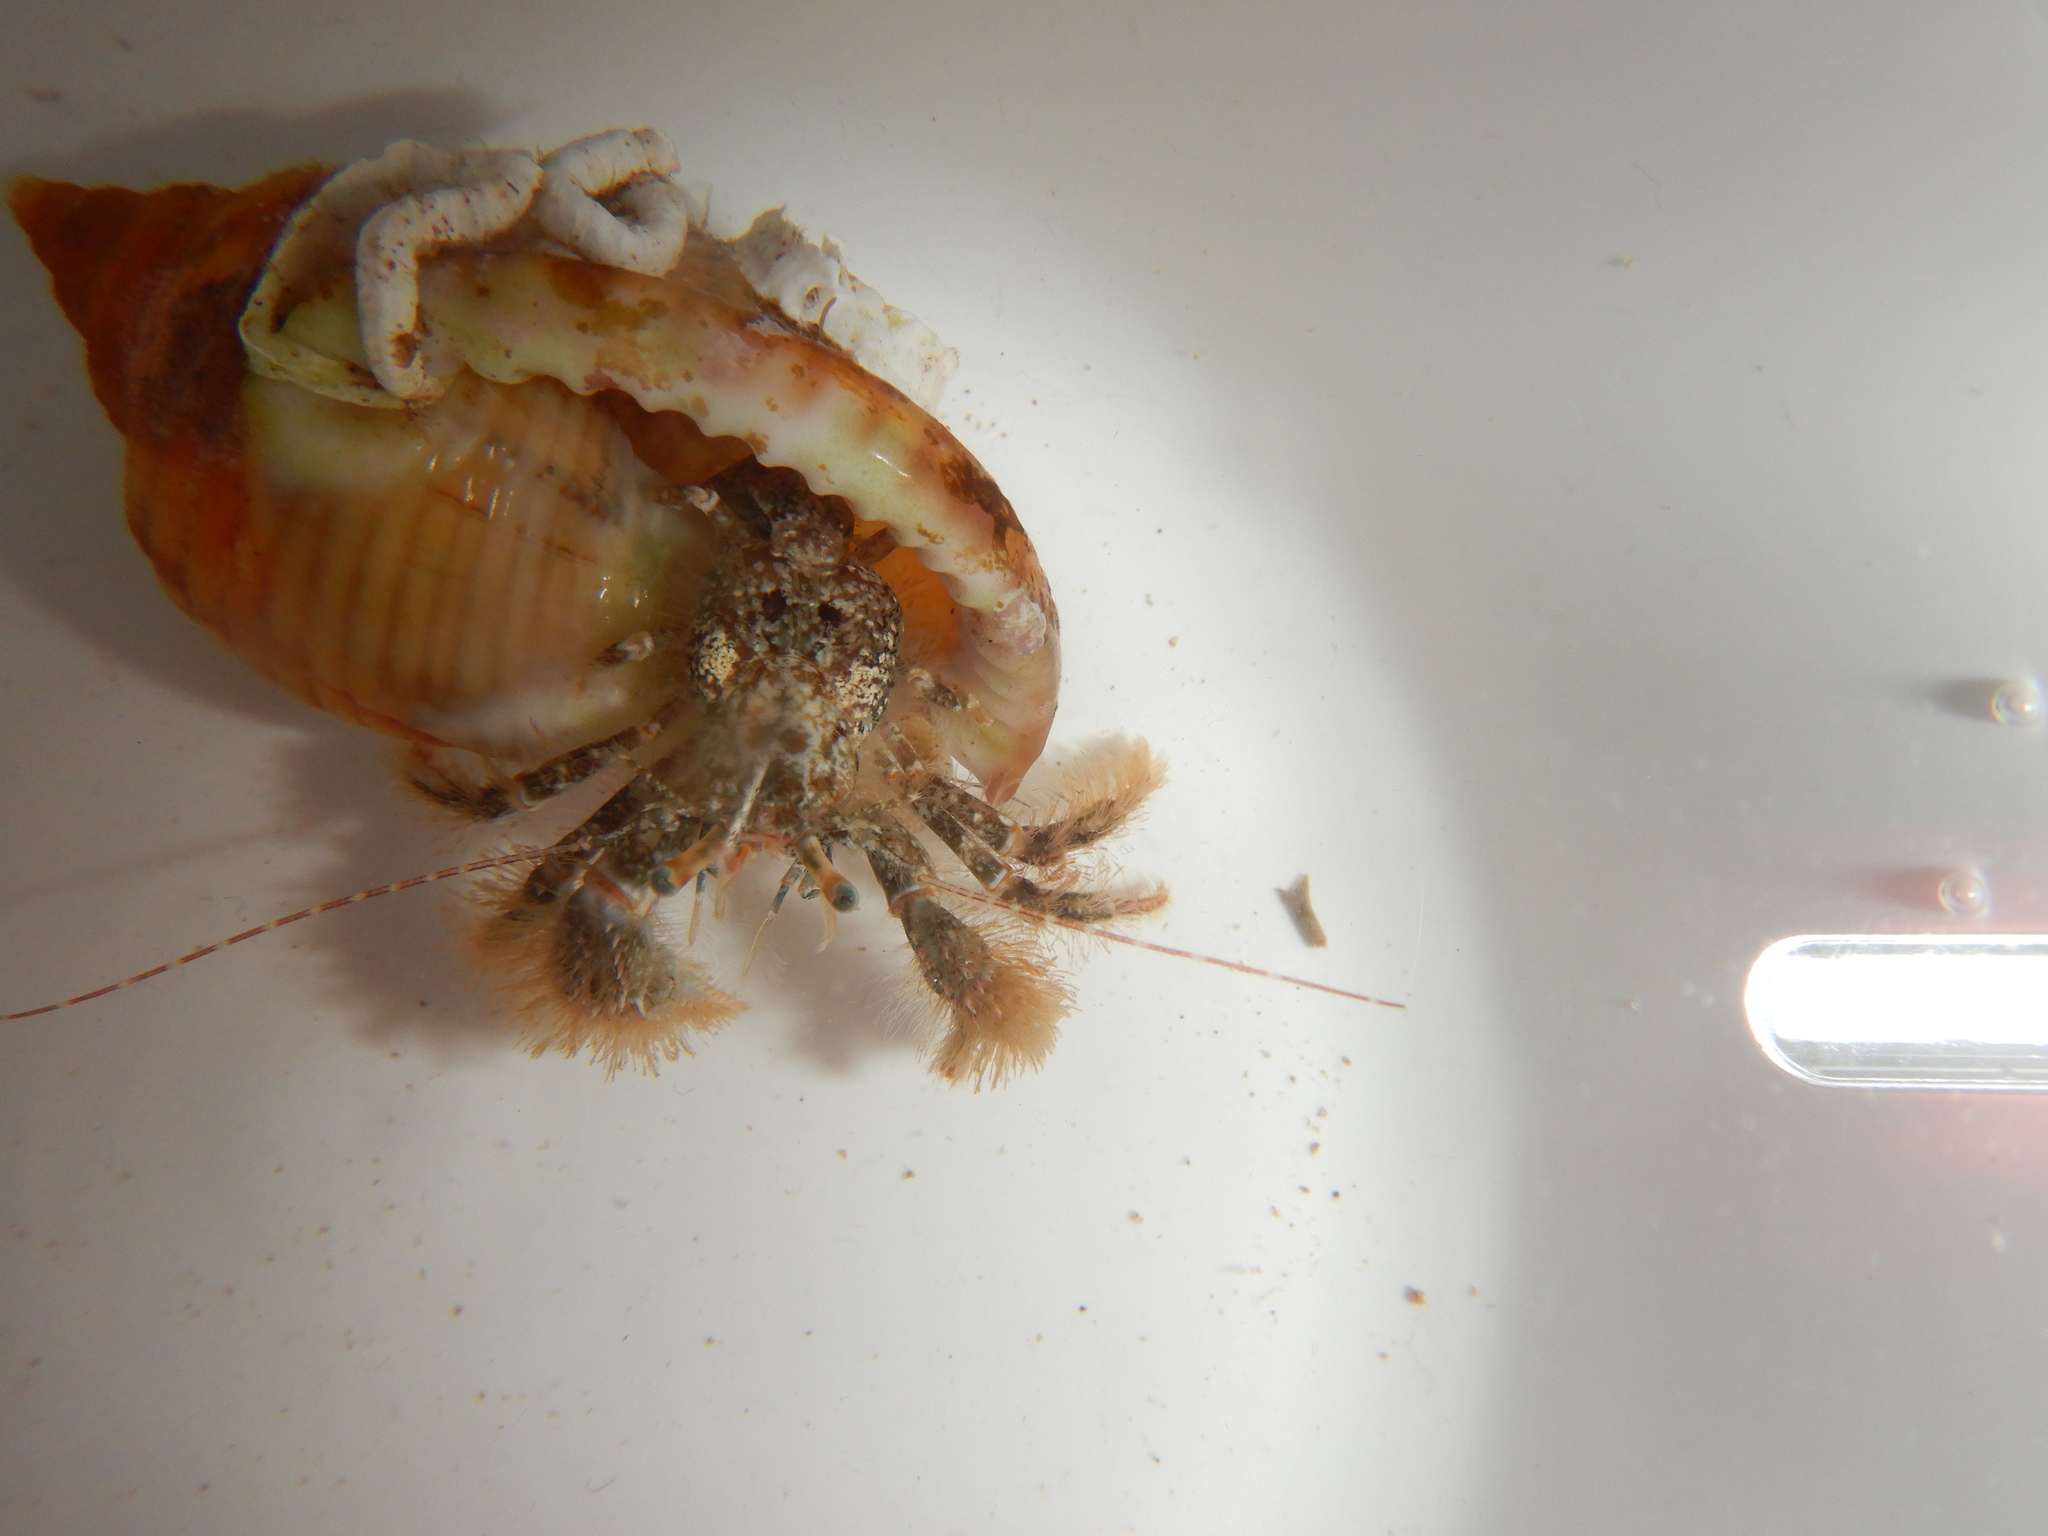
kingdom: Animalia
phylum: Arthropoda
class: Malacostraca
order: Decapoda
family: Paguridae
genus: Pagurus
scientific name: Pagurus cuanensis
